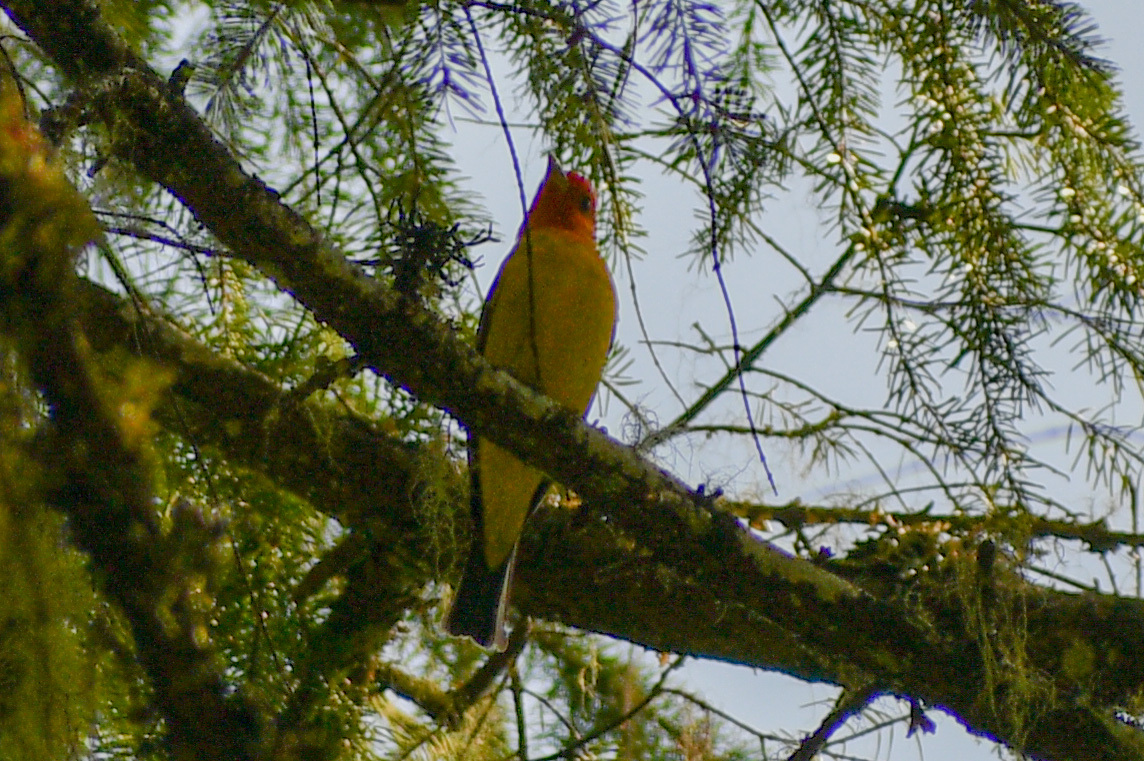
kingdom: Animalia
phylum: Chordata
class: Aves
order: Passeriformes
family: Cardinalidae
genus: Piranga
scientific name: Piranga ludoviciana
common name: Western tanager
